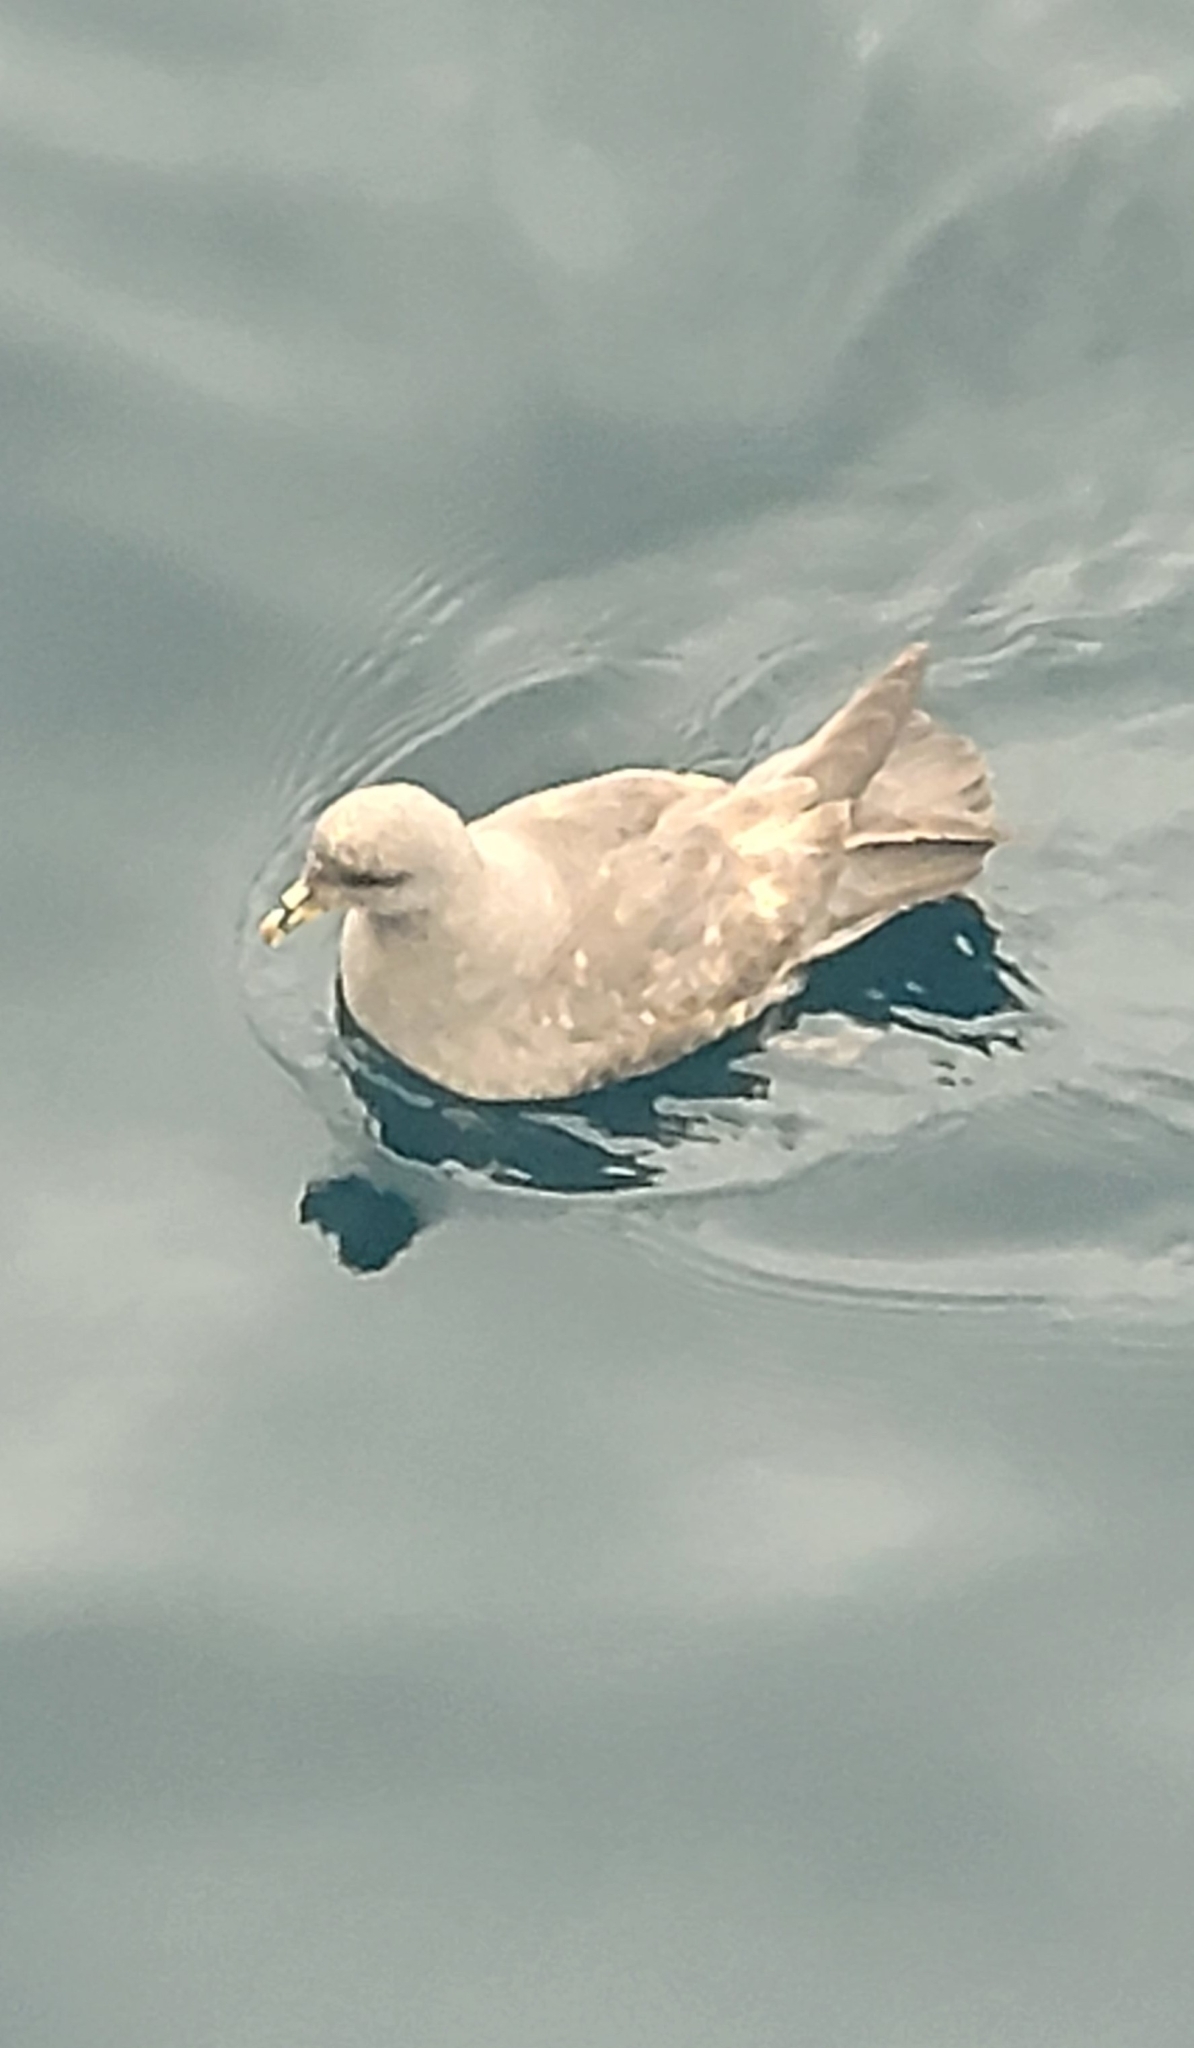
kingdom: Animalia
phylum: Chordata
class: Aves
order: Procellariiformes
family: Procellariidae
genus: Fulmarus
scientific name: Fulmarus glacialis
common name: Northern fulmar
